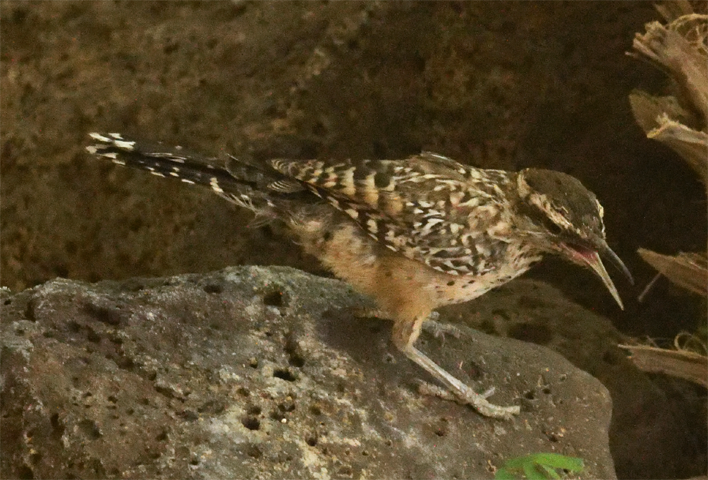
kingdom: Animalia
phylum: Chordata
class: Aves
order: Passeriformes
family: Troglodytidae
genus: Campylorhynchus
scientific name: Campylorhynchus brunneicapillus
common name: Cactus wren
